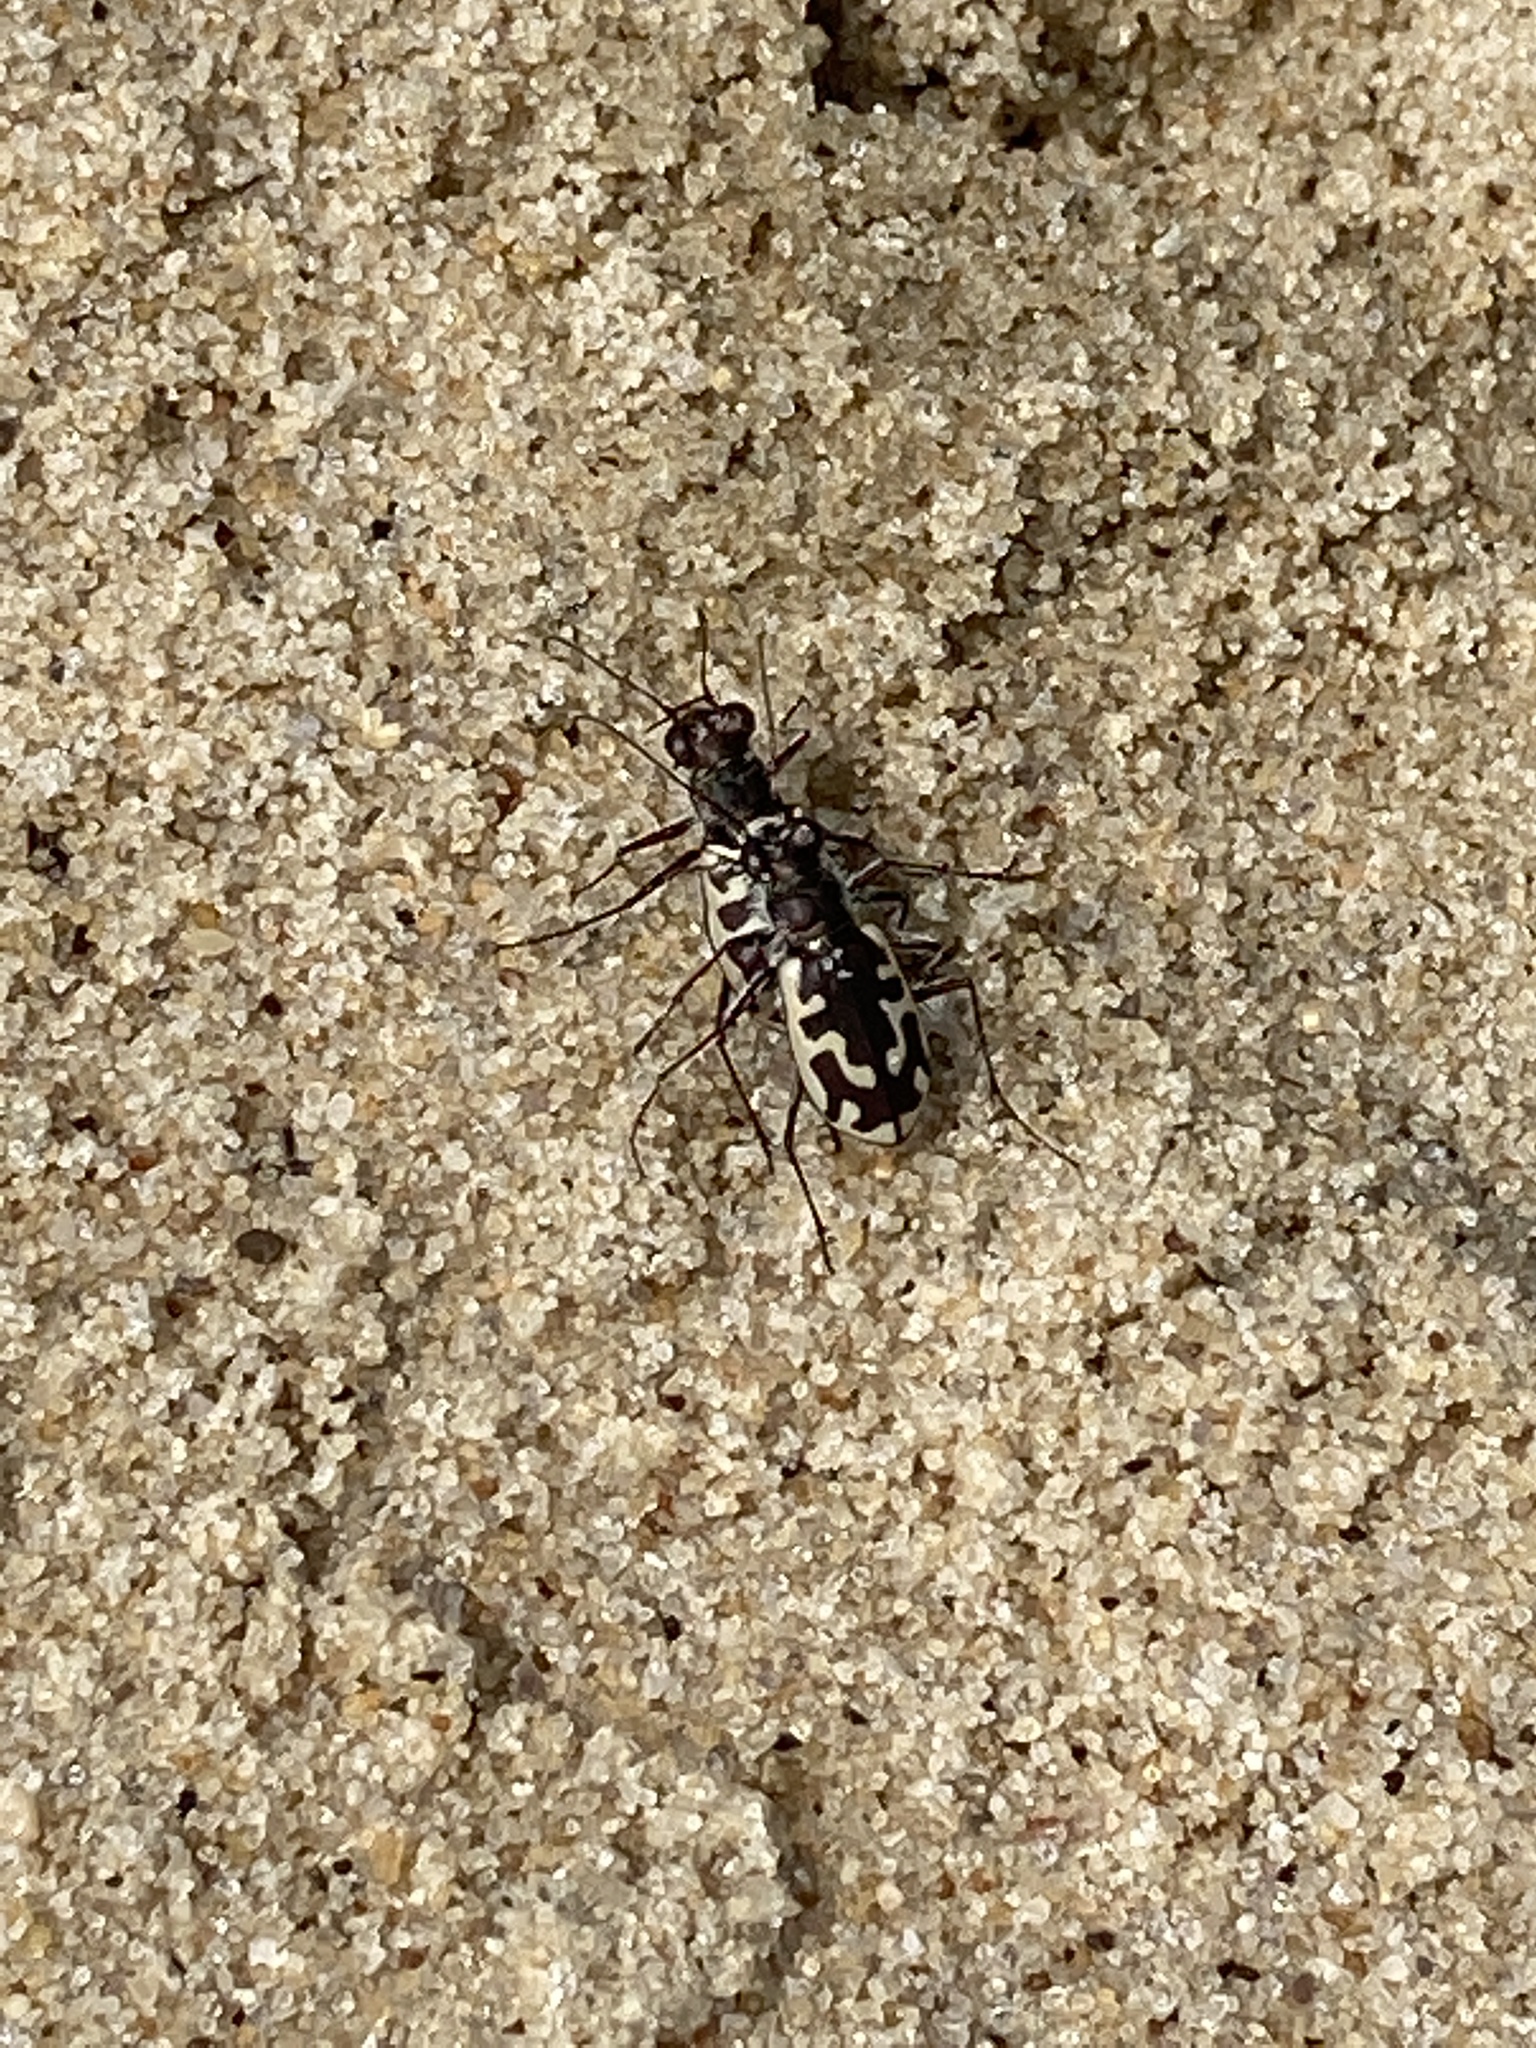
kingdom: Animalia
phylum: Arthropoda
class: Insecta
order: Coleoptera
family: Carabidae
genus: Cicindela
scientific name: Cicindela hirticollis
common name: Hairy-necked tiger beetle
